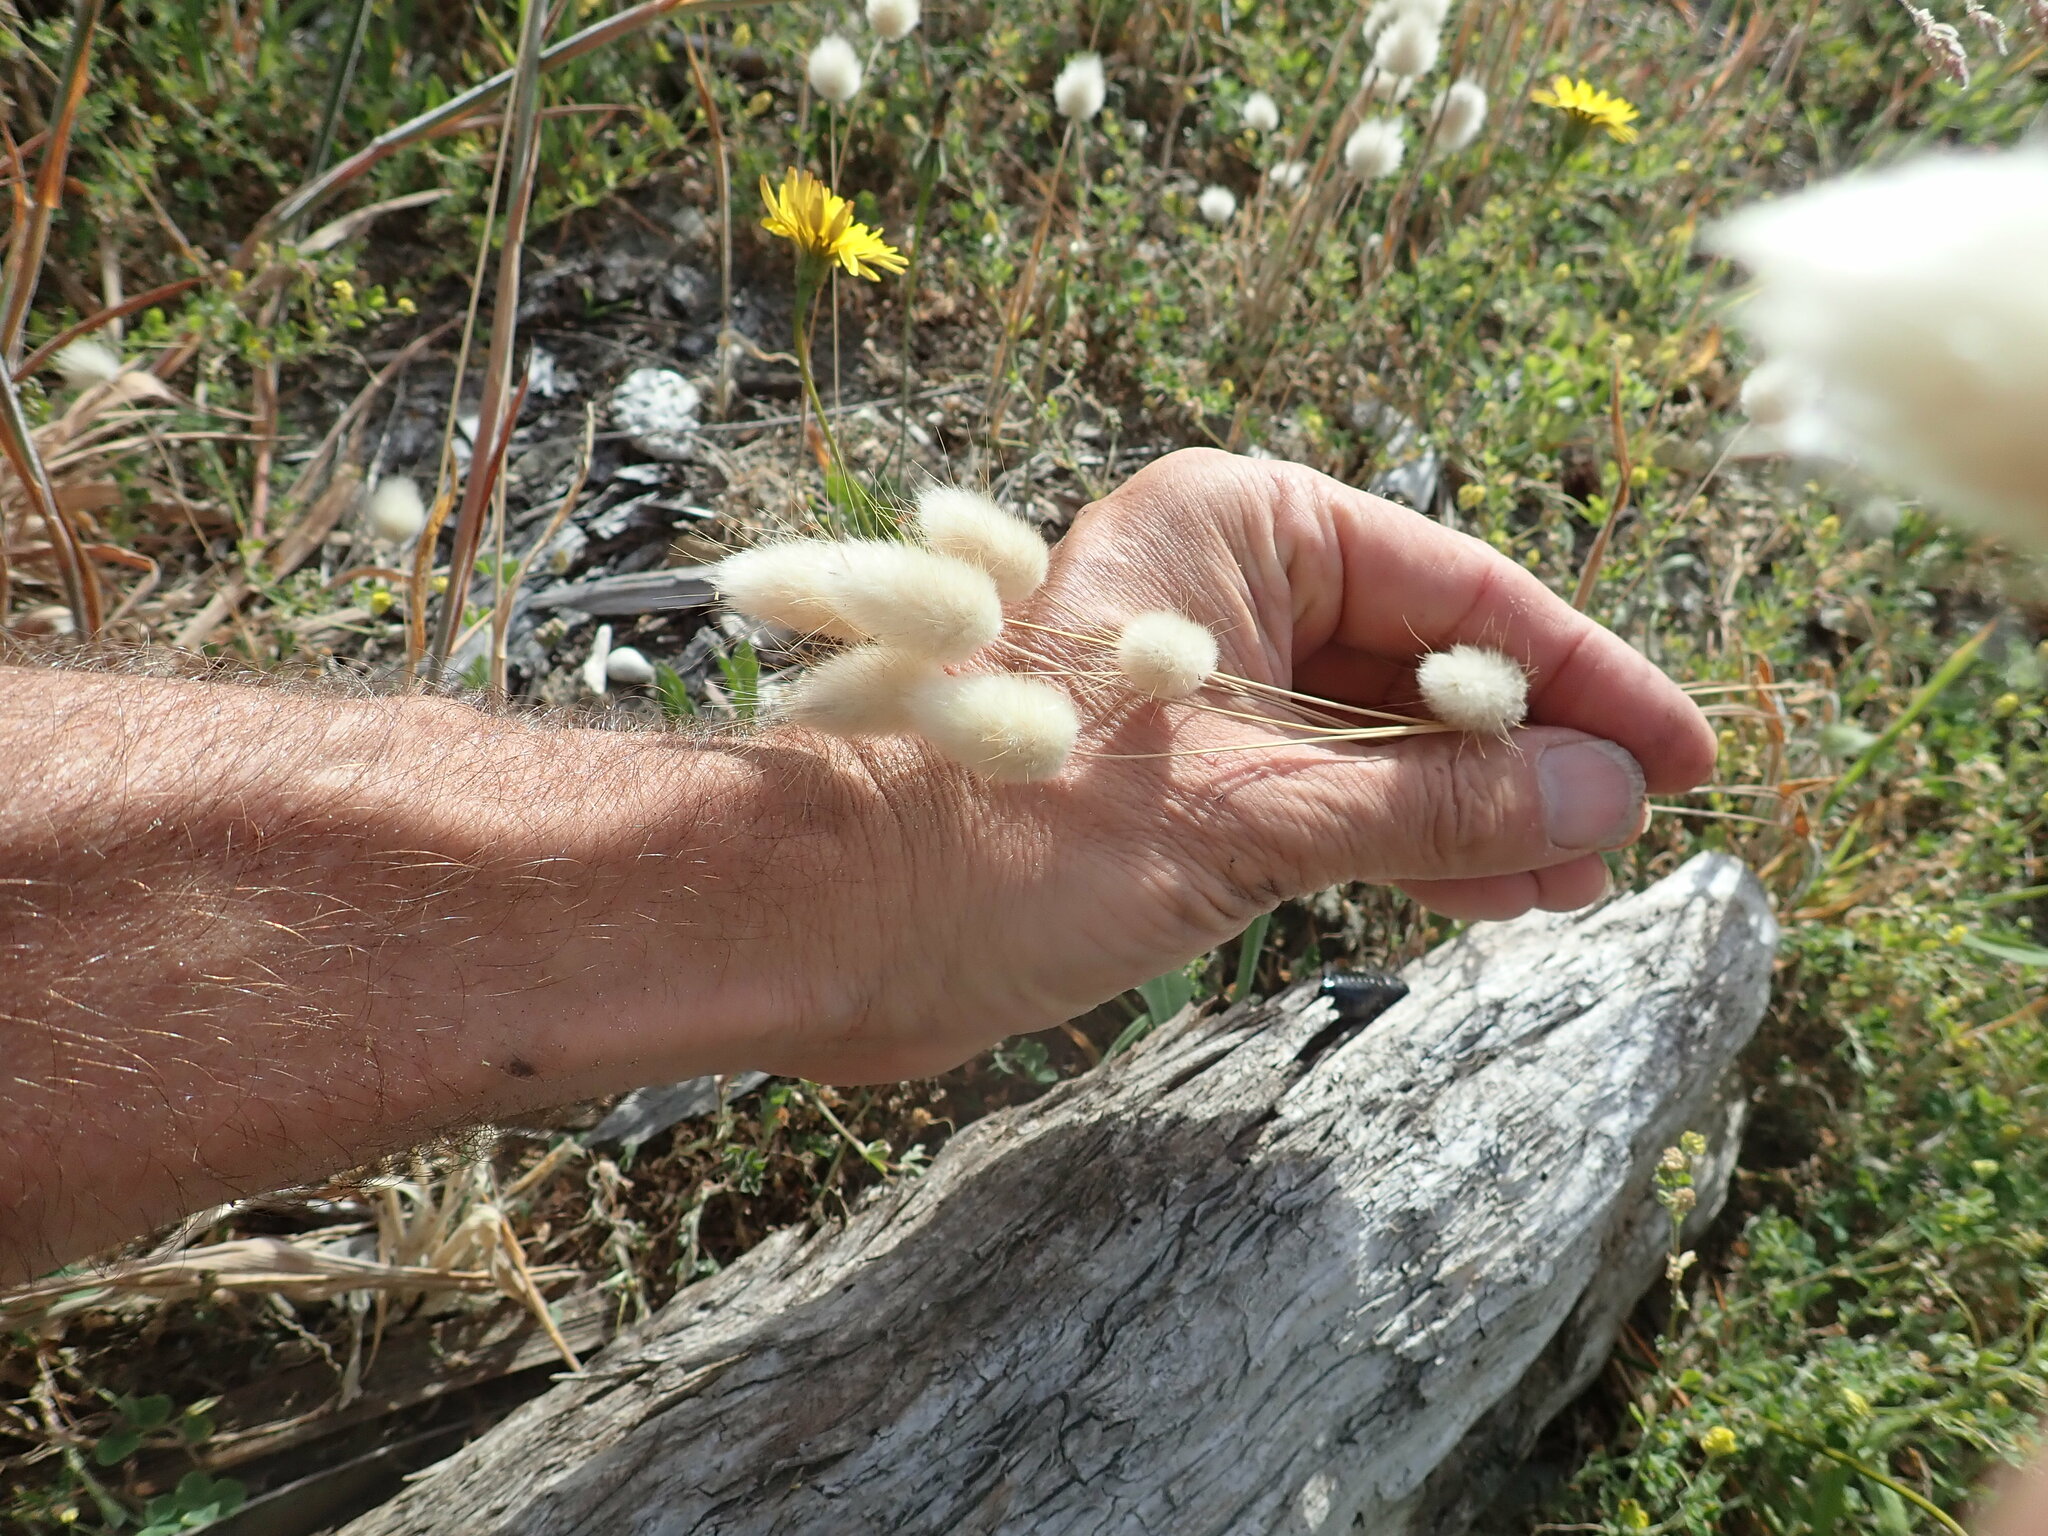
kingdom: Plantae
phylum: Tracheophyta
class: Liliopsida
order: Poales
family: Poaceae
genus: Lagurus
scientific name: Lagurus ovatus
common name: Hare's-tail
